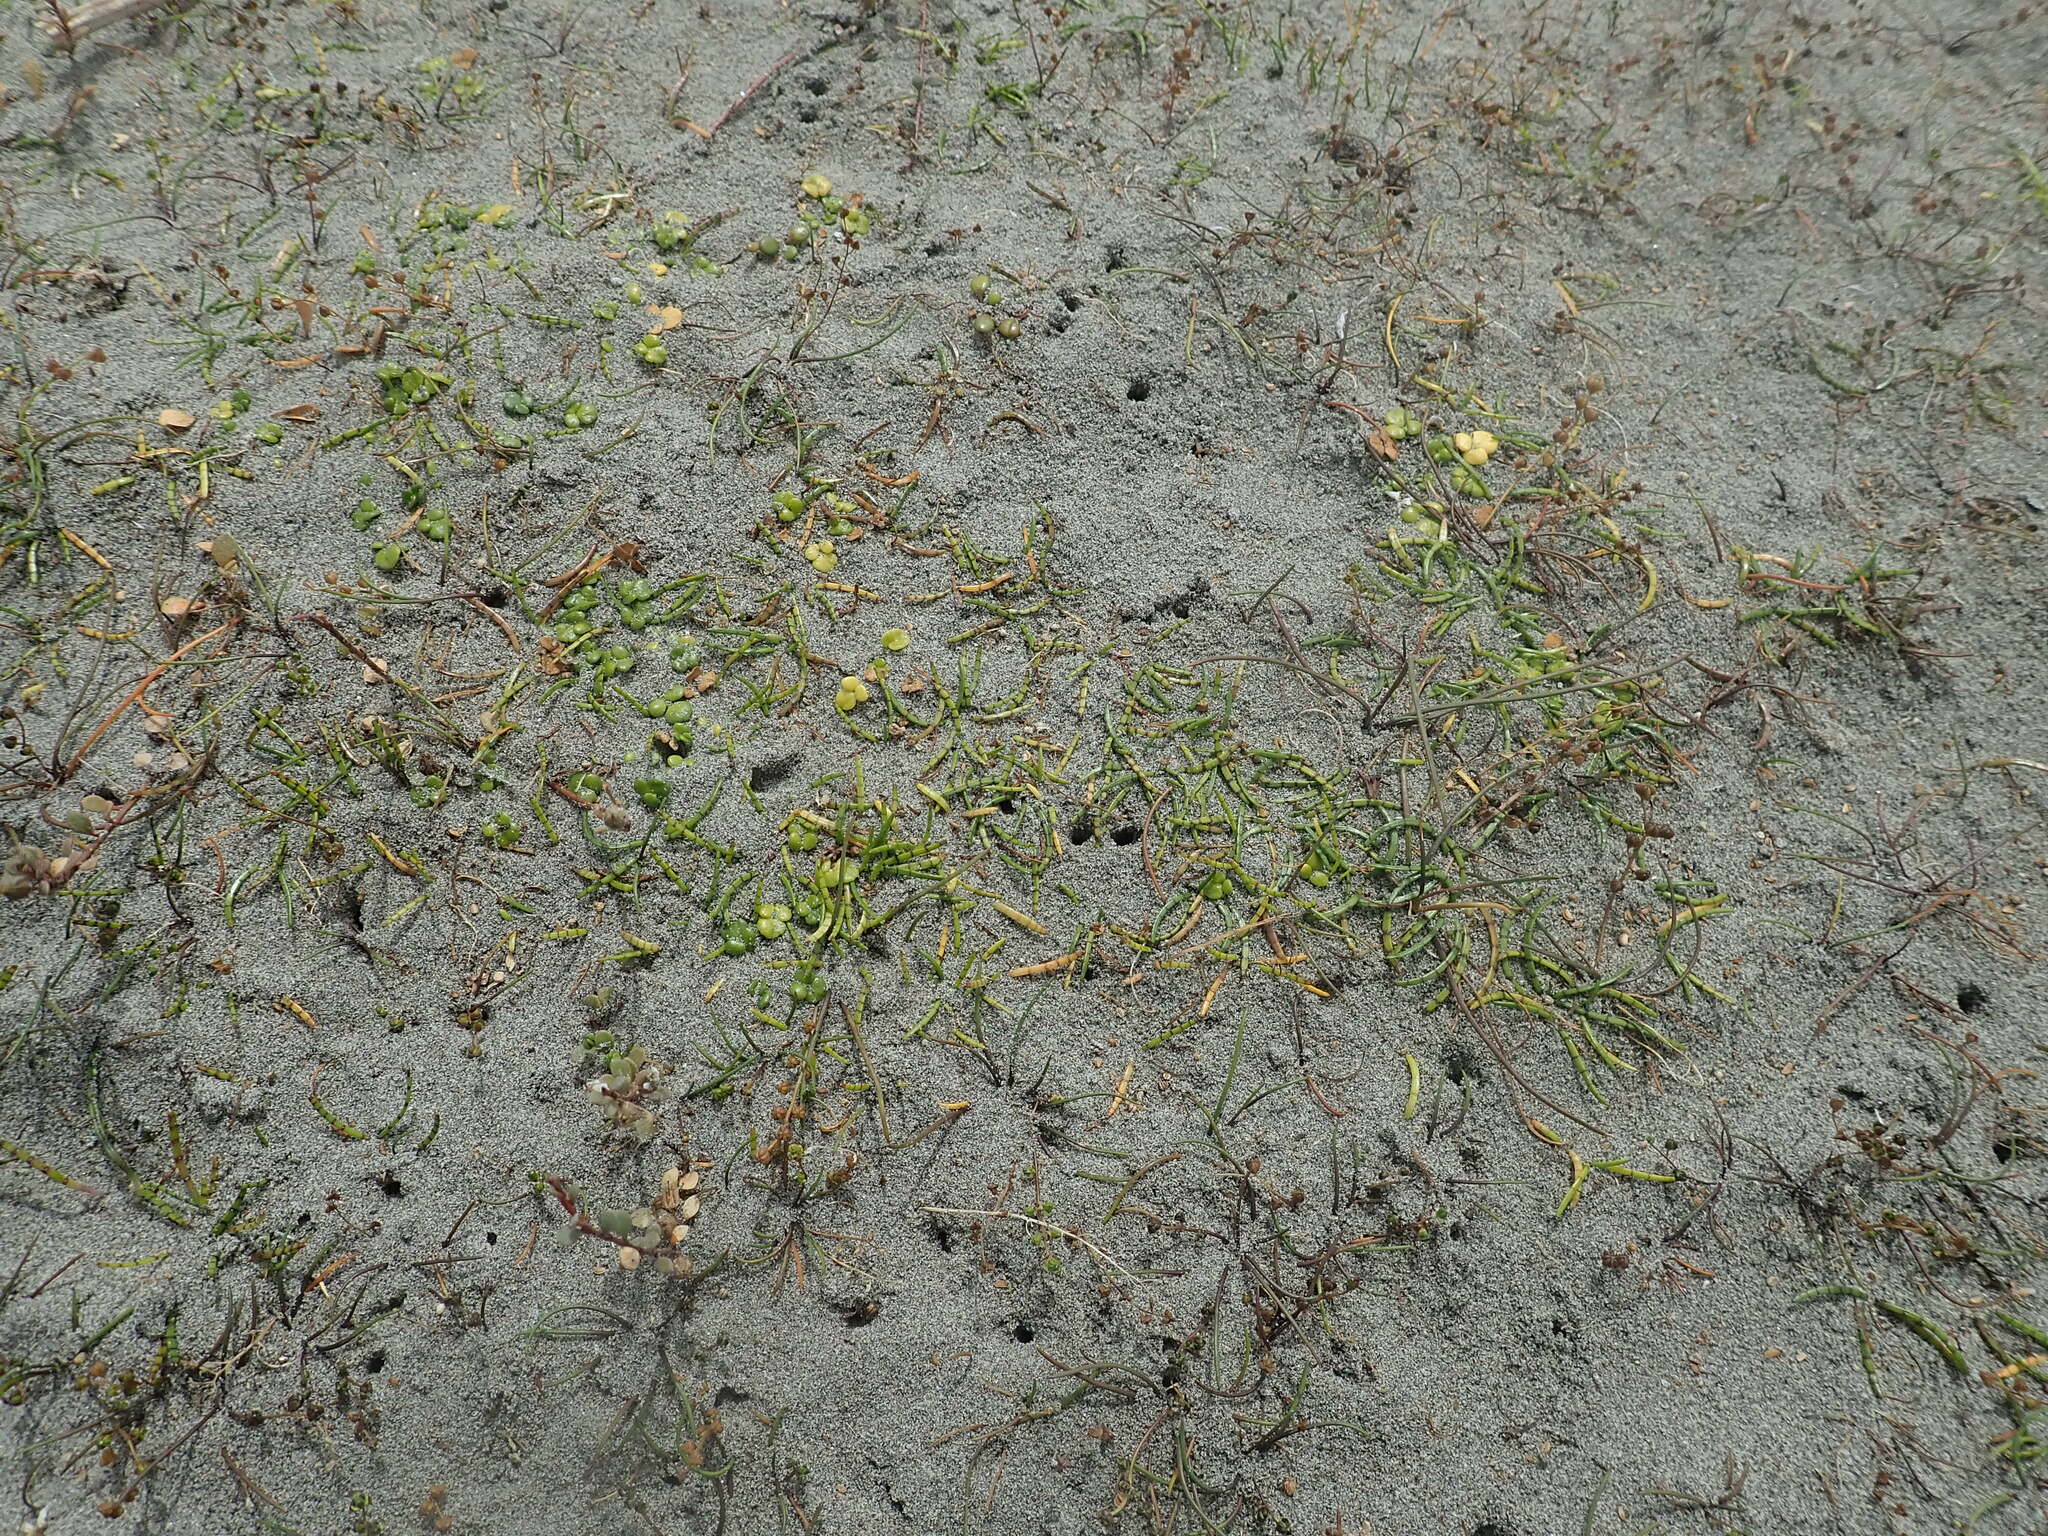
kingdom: Plantae
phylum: Tracheophyta
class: Magnoliopsida
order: Ranunculales
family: Ranunculaceae
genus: Ranunculus
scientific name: Ranunculus acaulis
